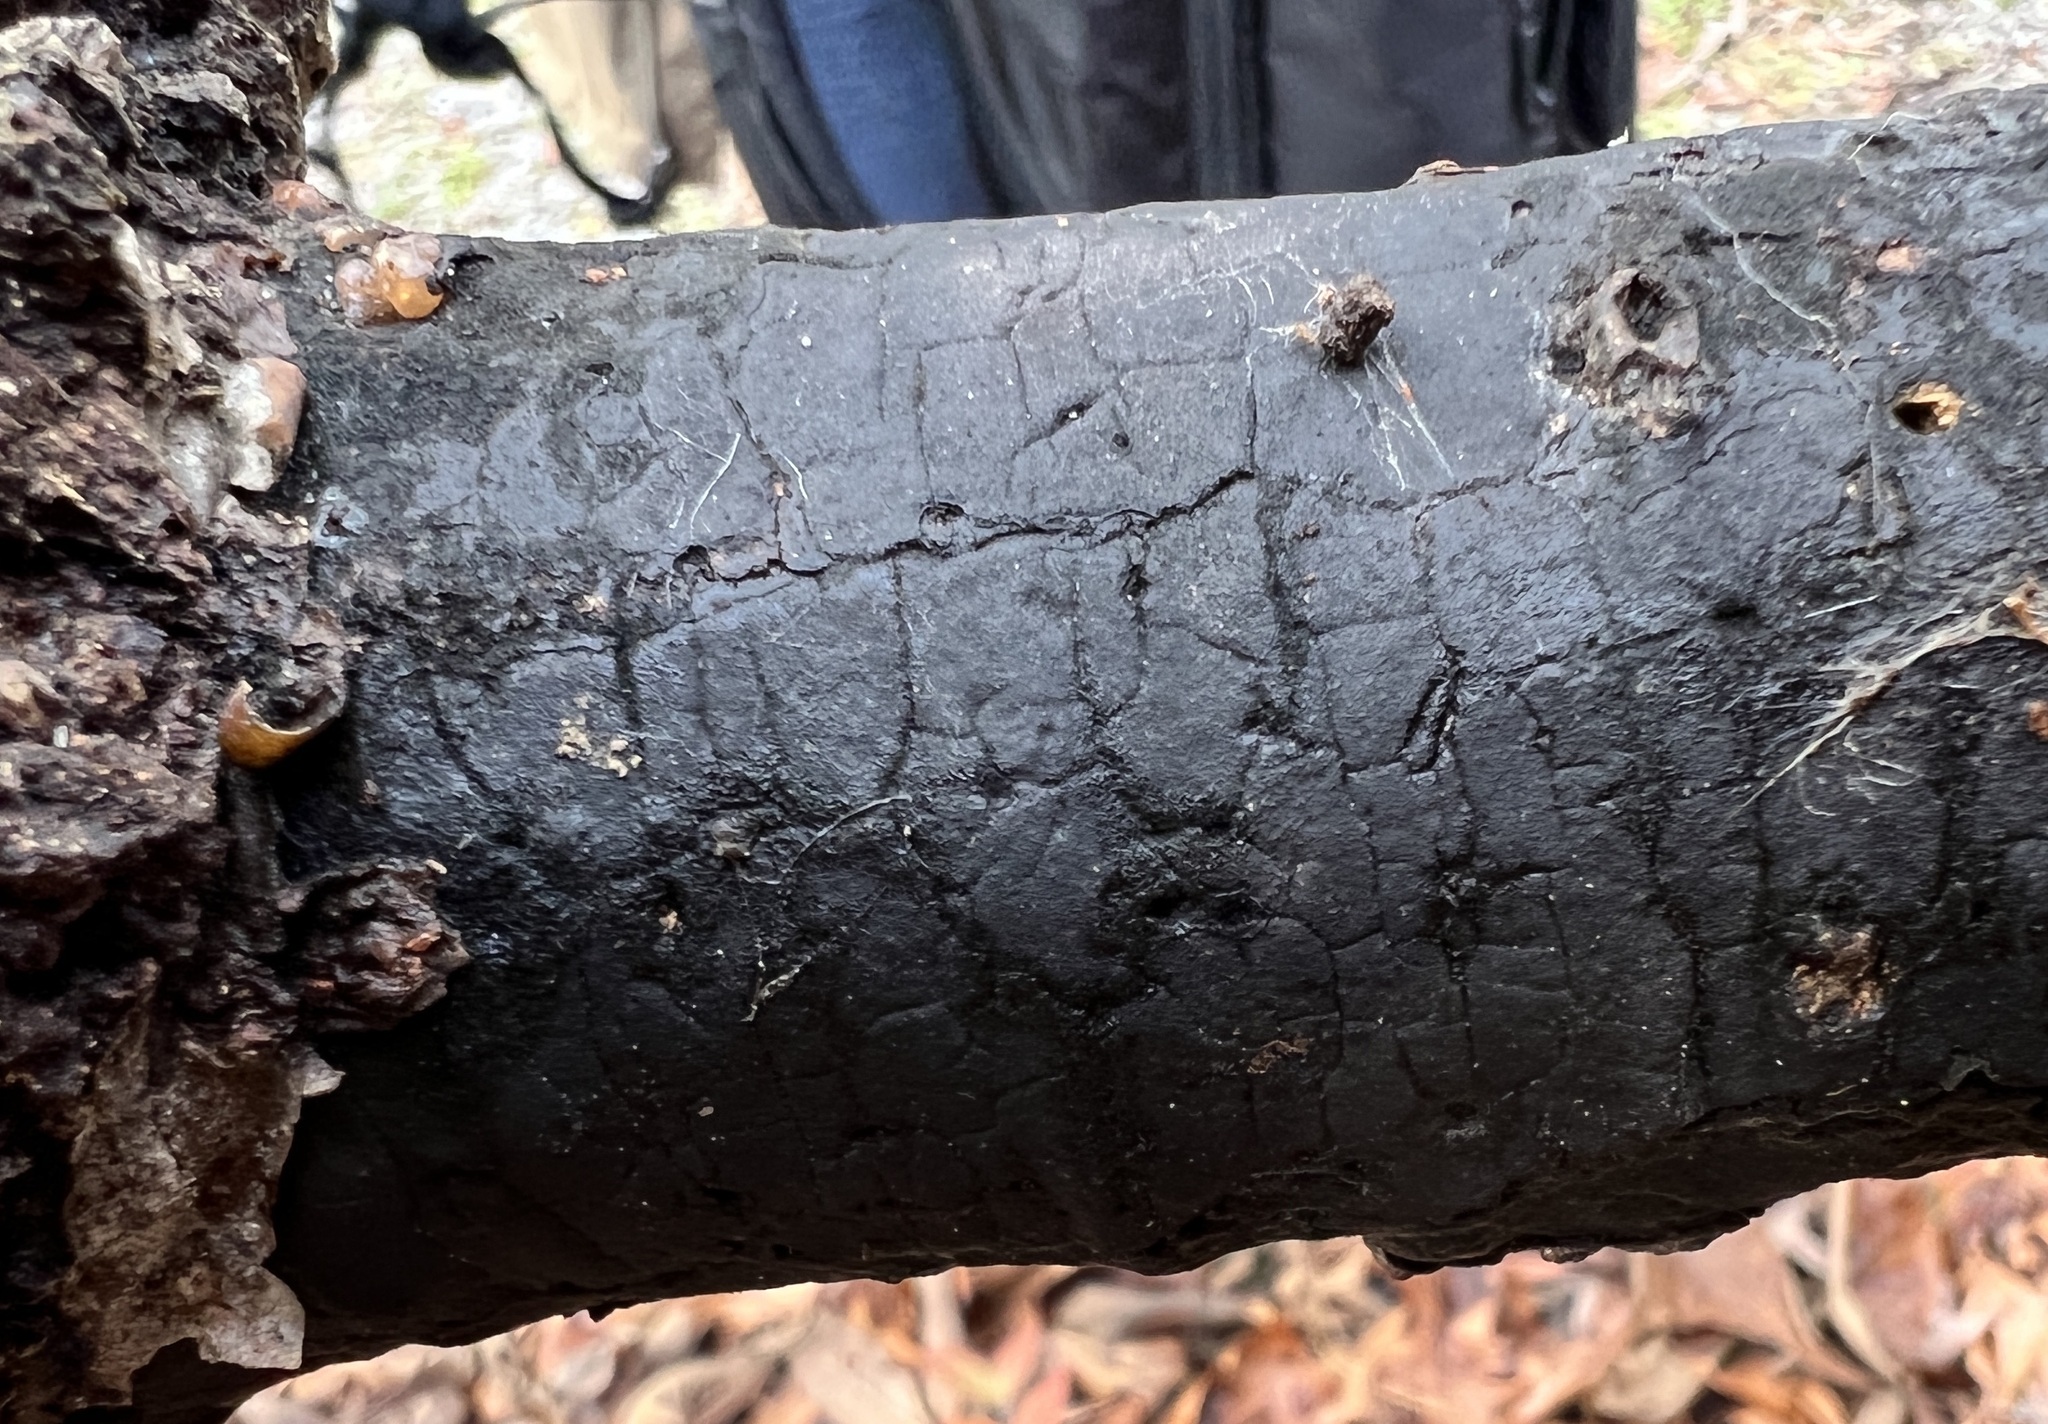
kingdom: Fungi
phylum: Ascomycota
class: Sordariomycetes
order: Xylariales
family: Diatrypaceae
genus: Diatrype
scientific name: Diatrype stigma
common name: Common tarcrust
